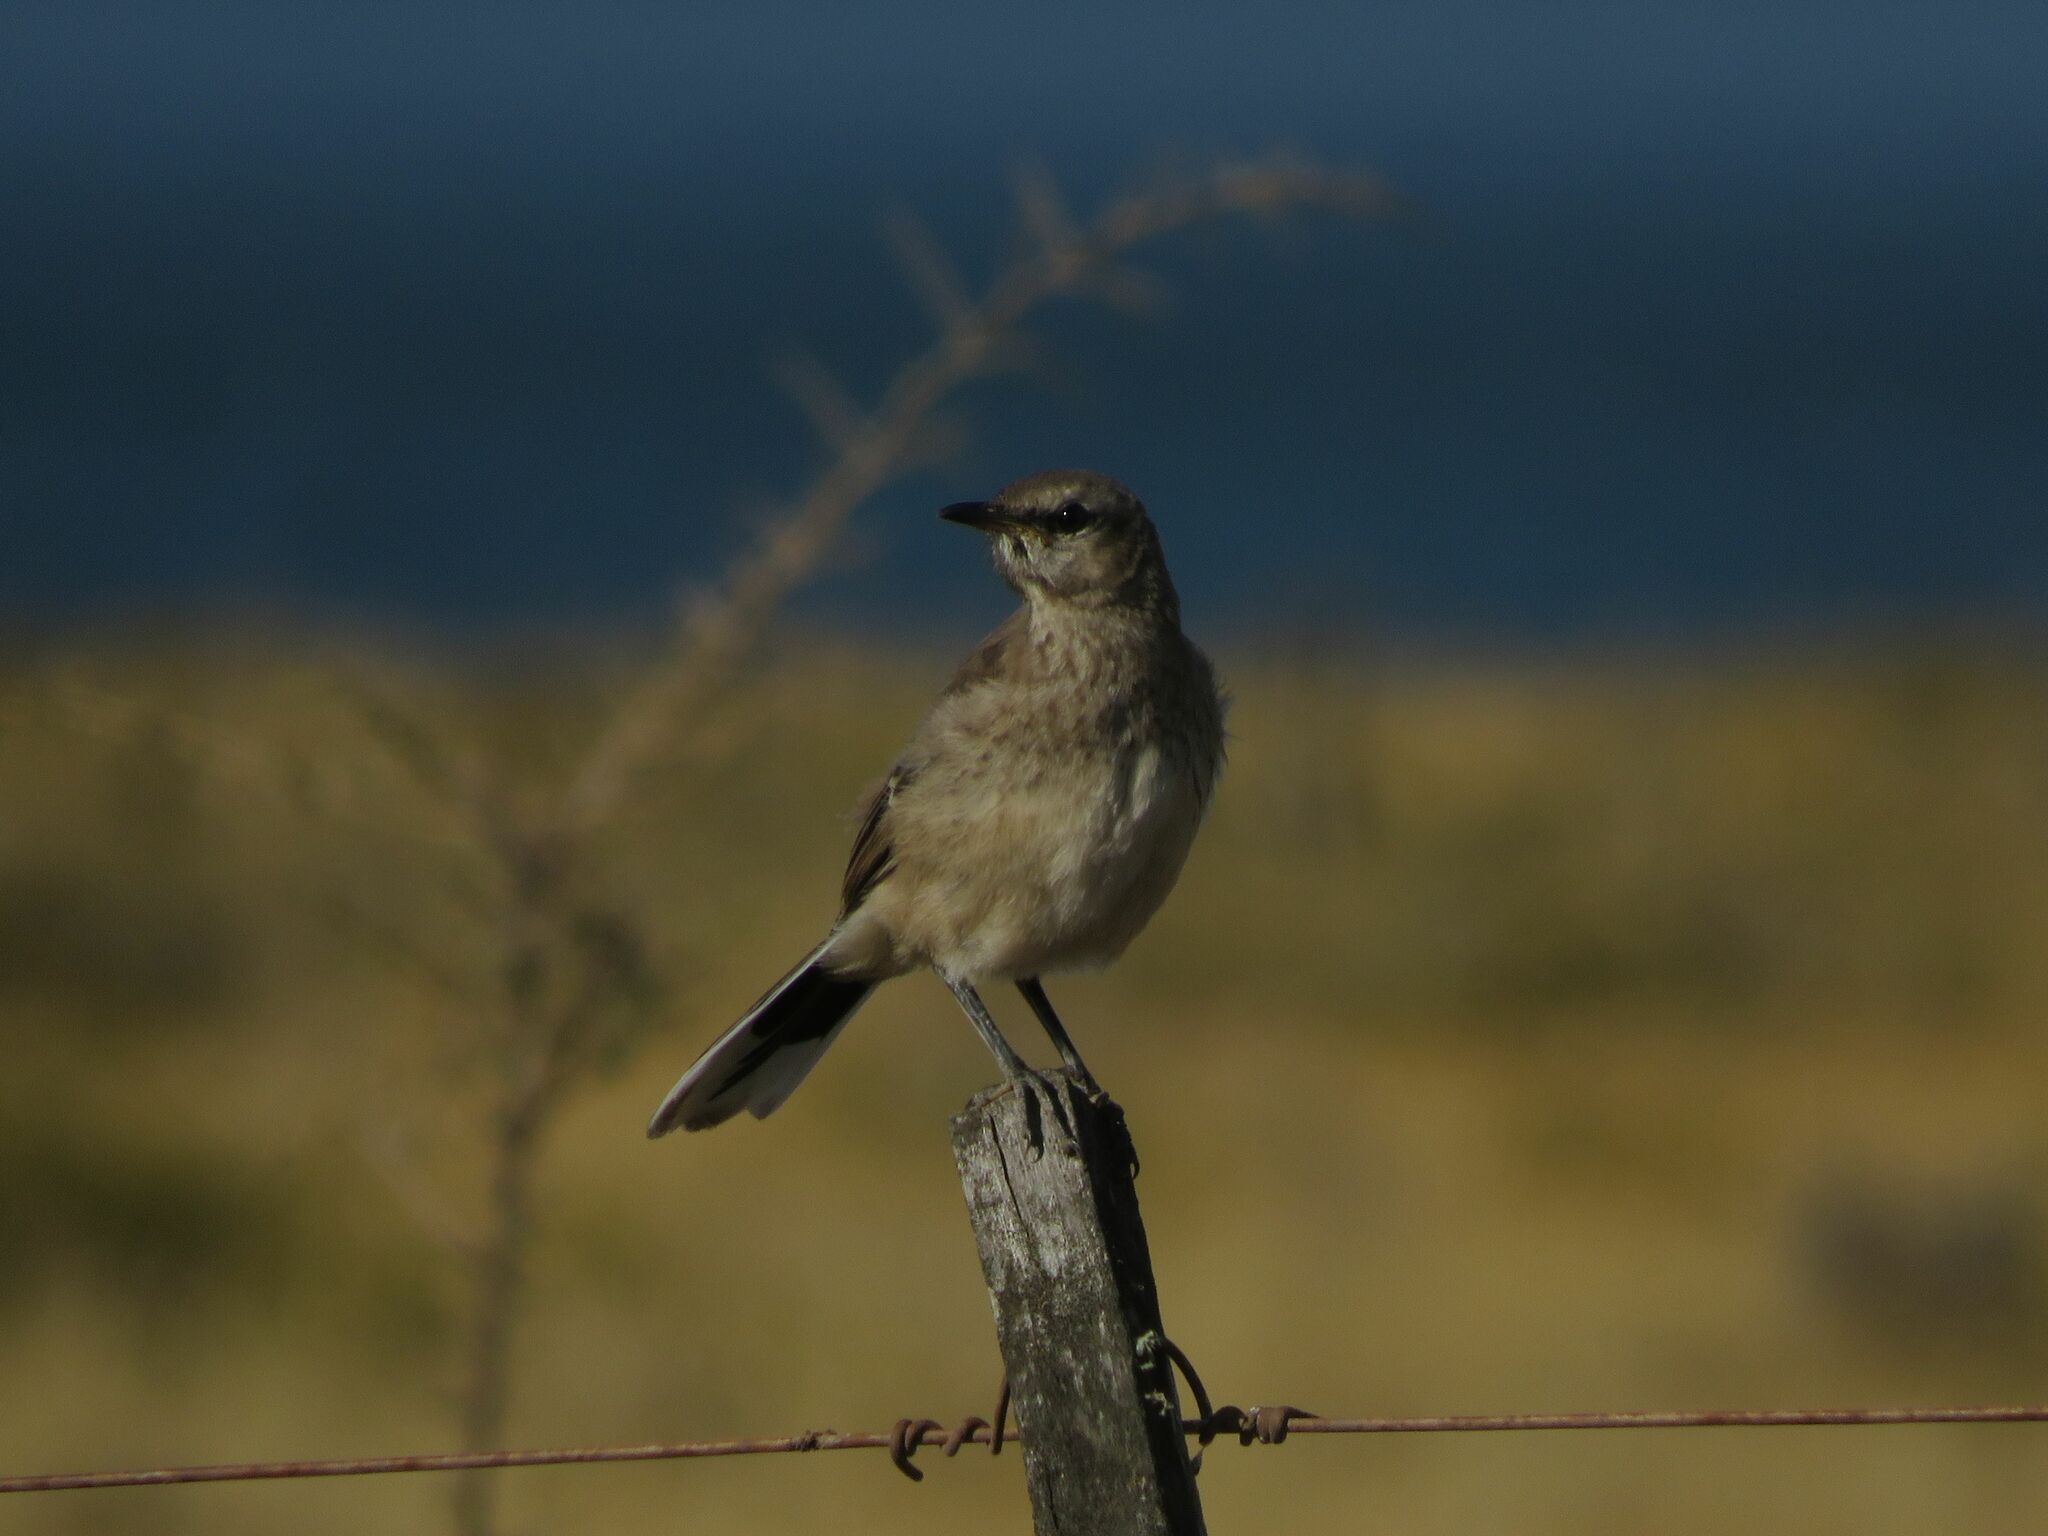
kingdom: Animalia
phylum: Chordata
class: Aves
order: Passeriformes
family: Mimidae
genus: Mimus
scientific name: Mimus patagonicus
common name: Patagonian mockingbird
